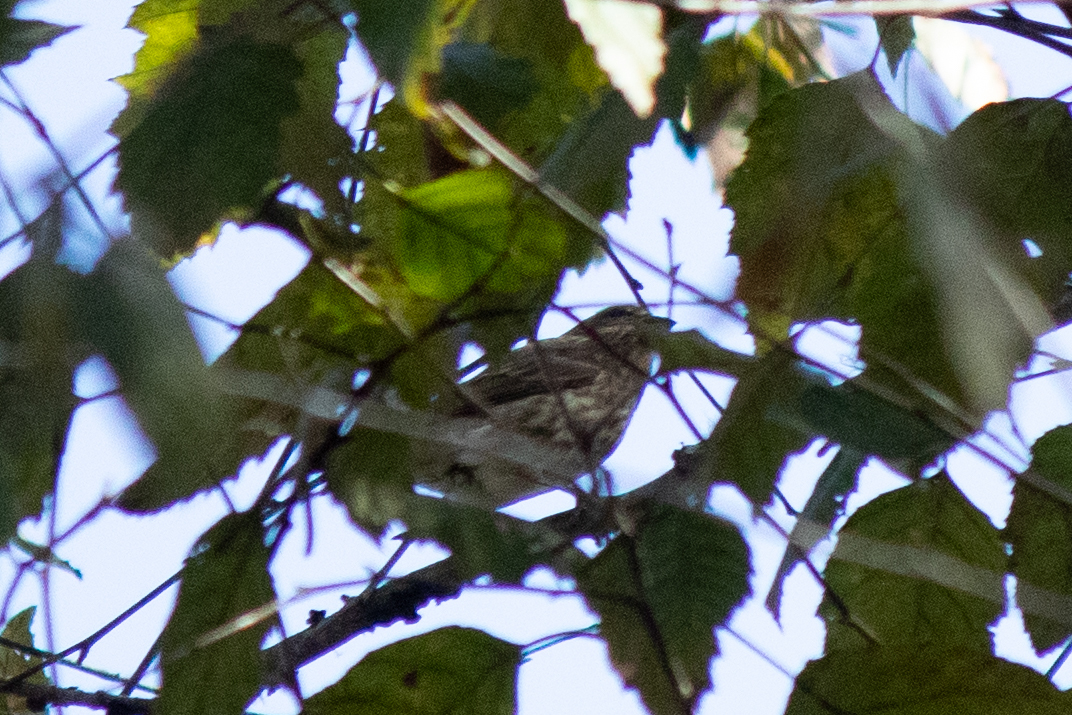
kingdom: Animalia
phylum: Chordata
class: Aves
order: Passeriformes
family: Fringillidae
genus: Haemorhous
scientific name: Haemorhous purpureus
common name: Purple finch
